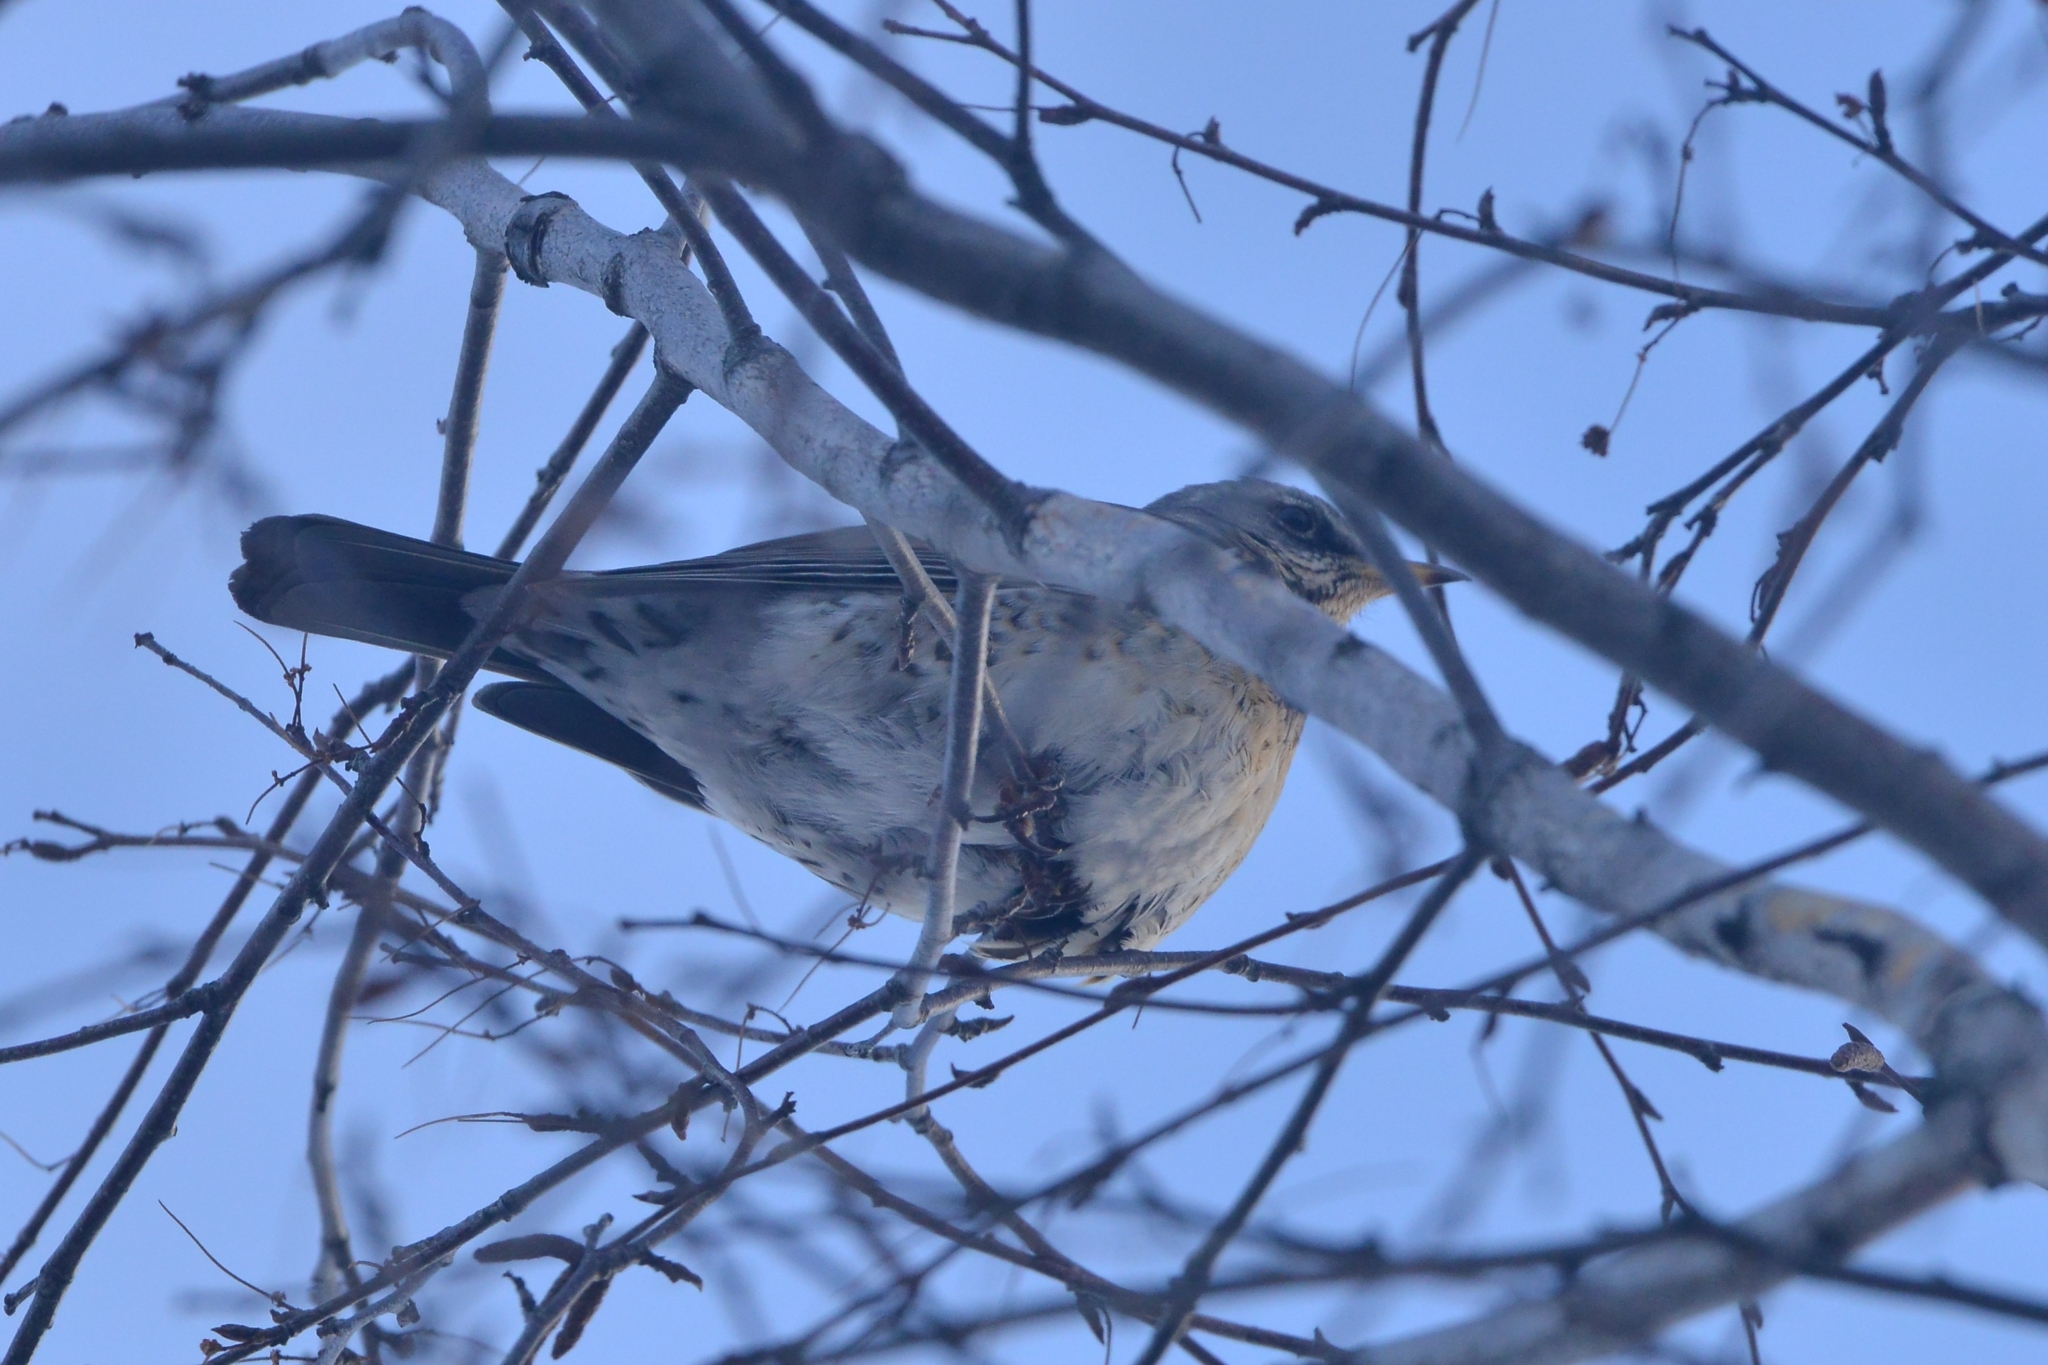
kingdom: Animalia
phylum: Chordata
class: Aves
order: Passeriformes
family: Turdidae
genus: Turdus
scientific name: Turdus pilaris
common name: Fieldfare
